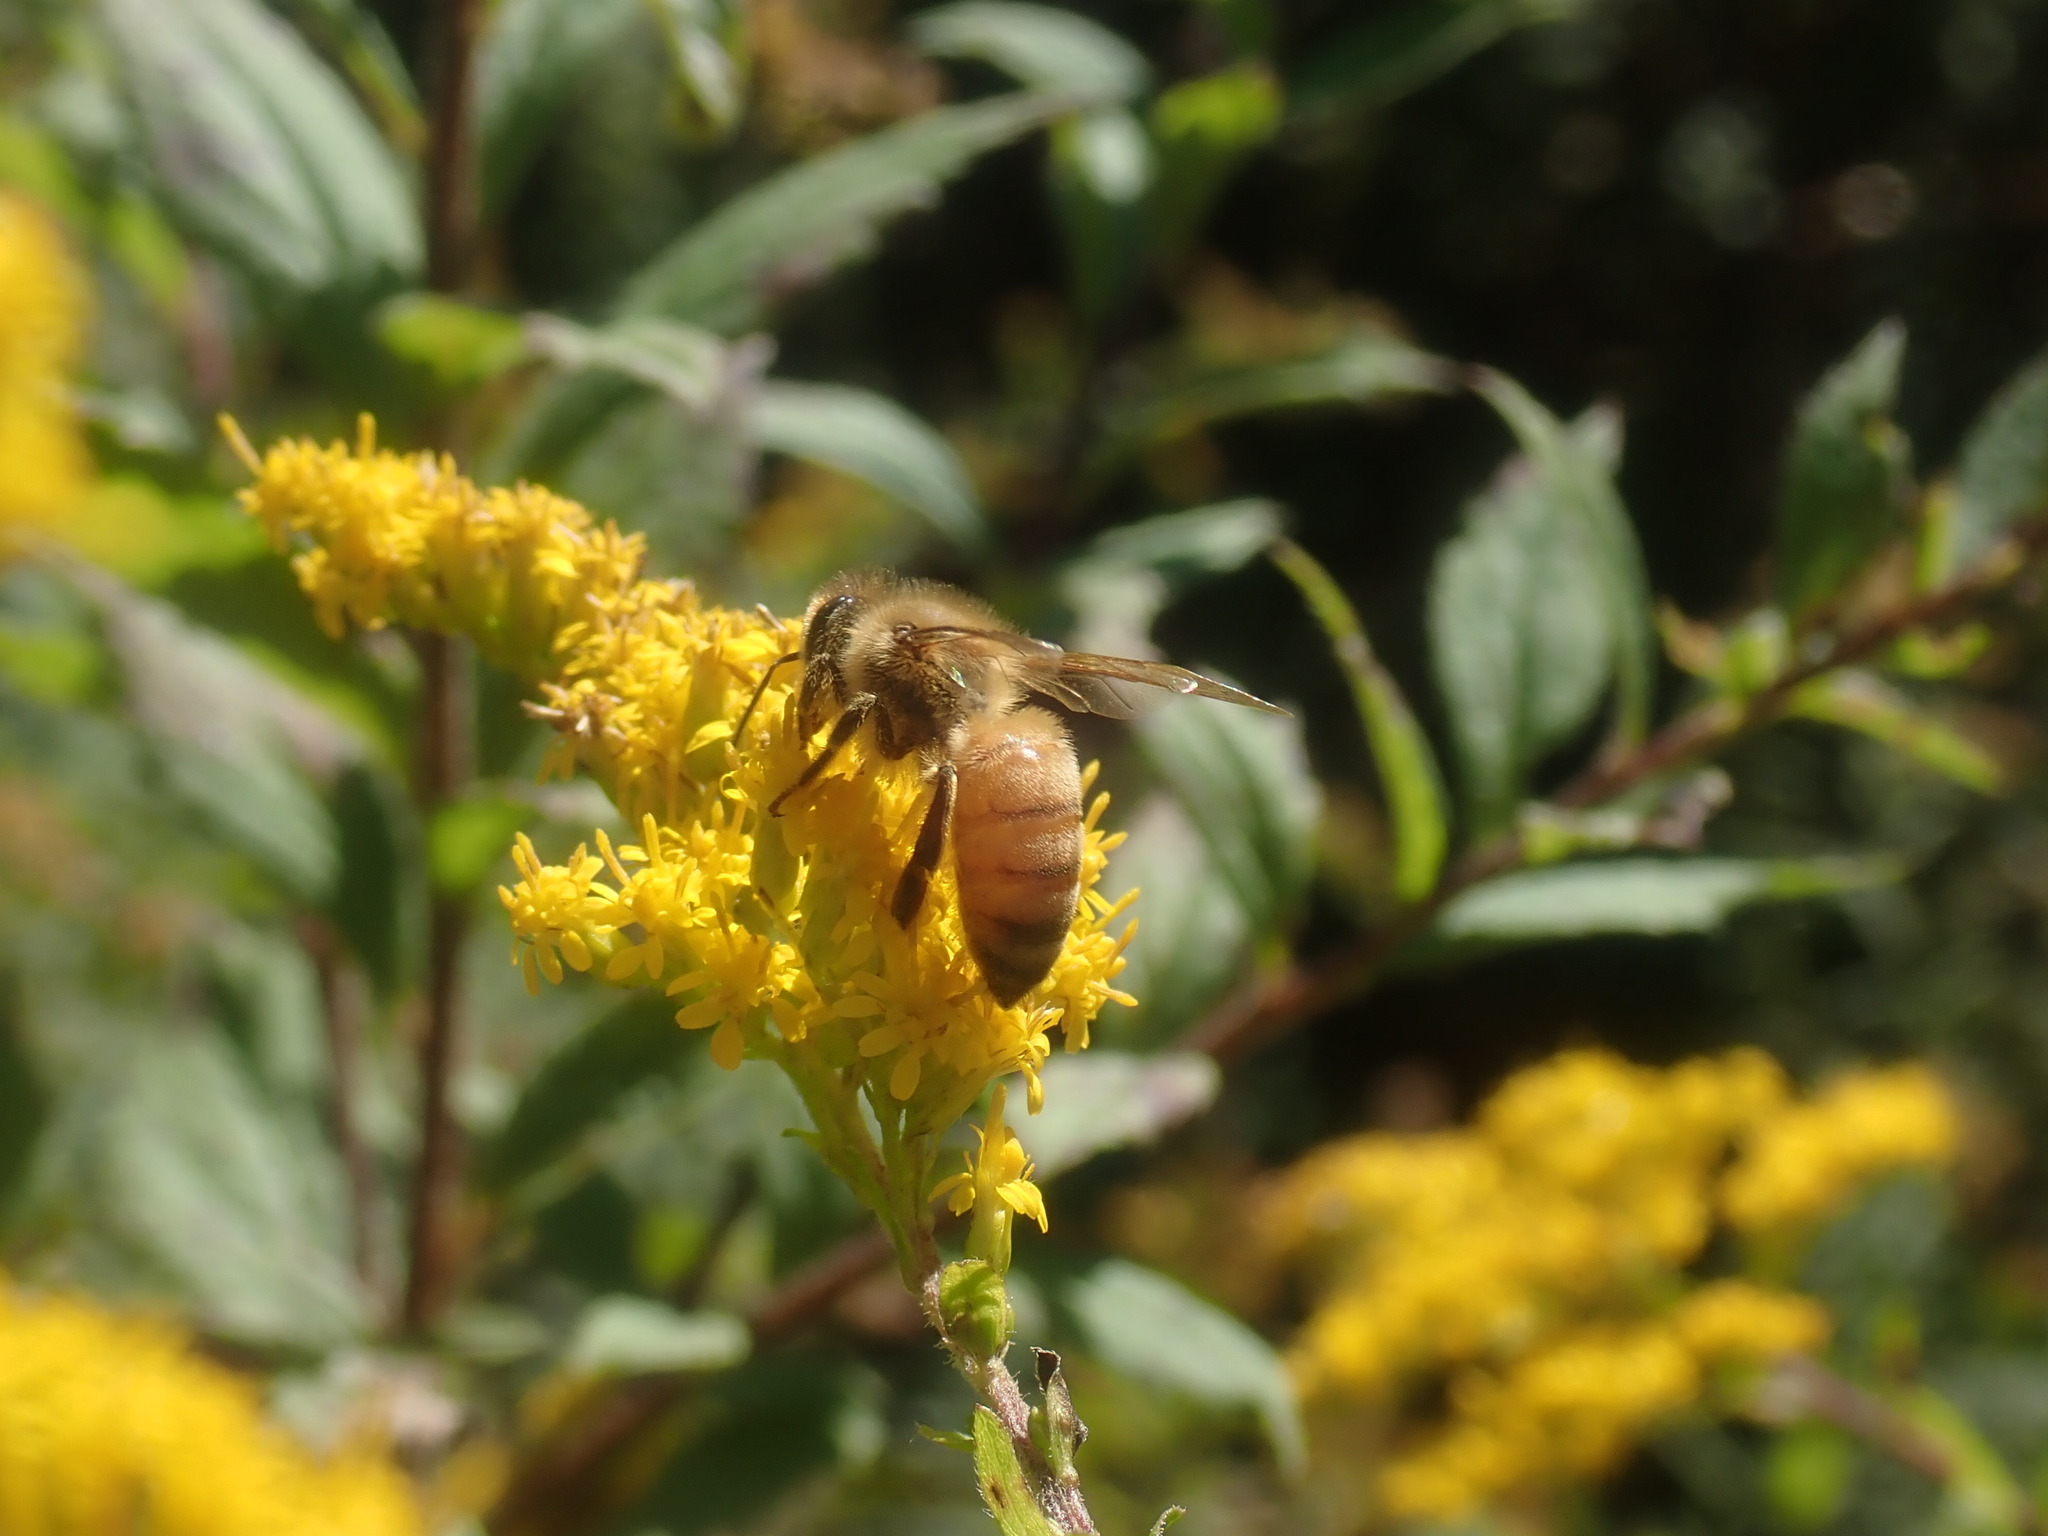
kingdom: Animalia
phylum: Arthropoda
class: Insecta
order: Hymenoptera
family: Apidae
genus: Apis
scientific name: Apis mellifera
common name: Honey bee
